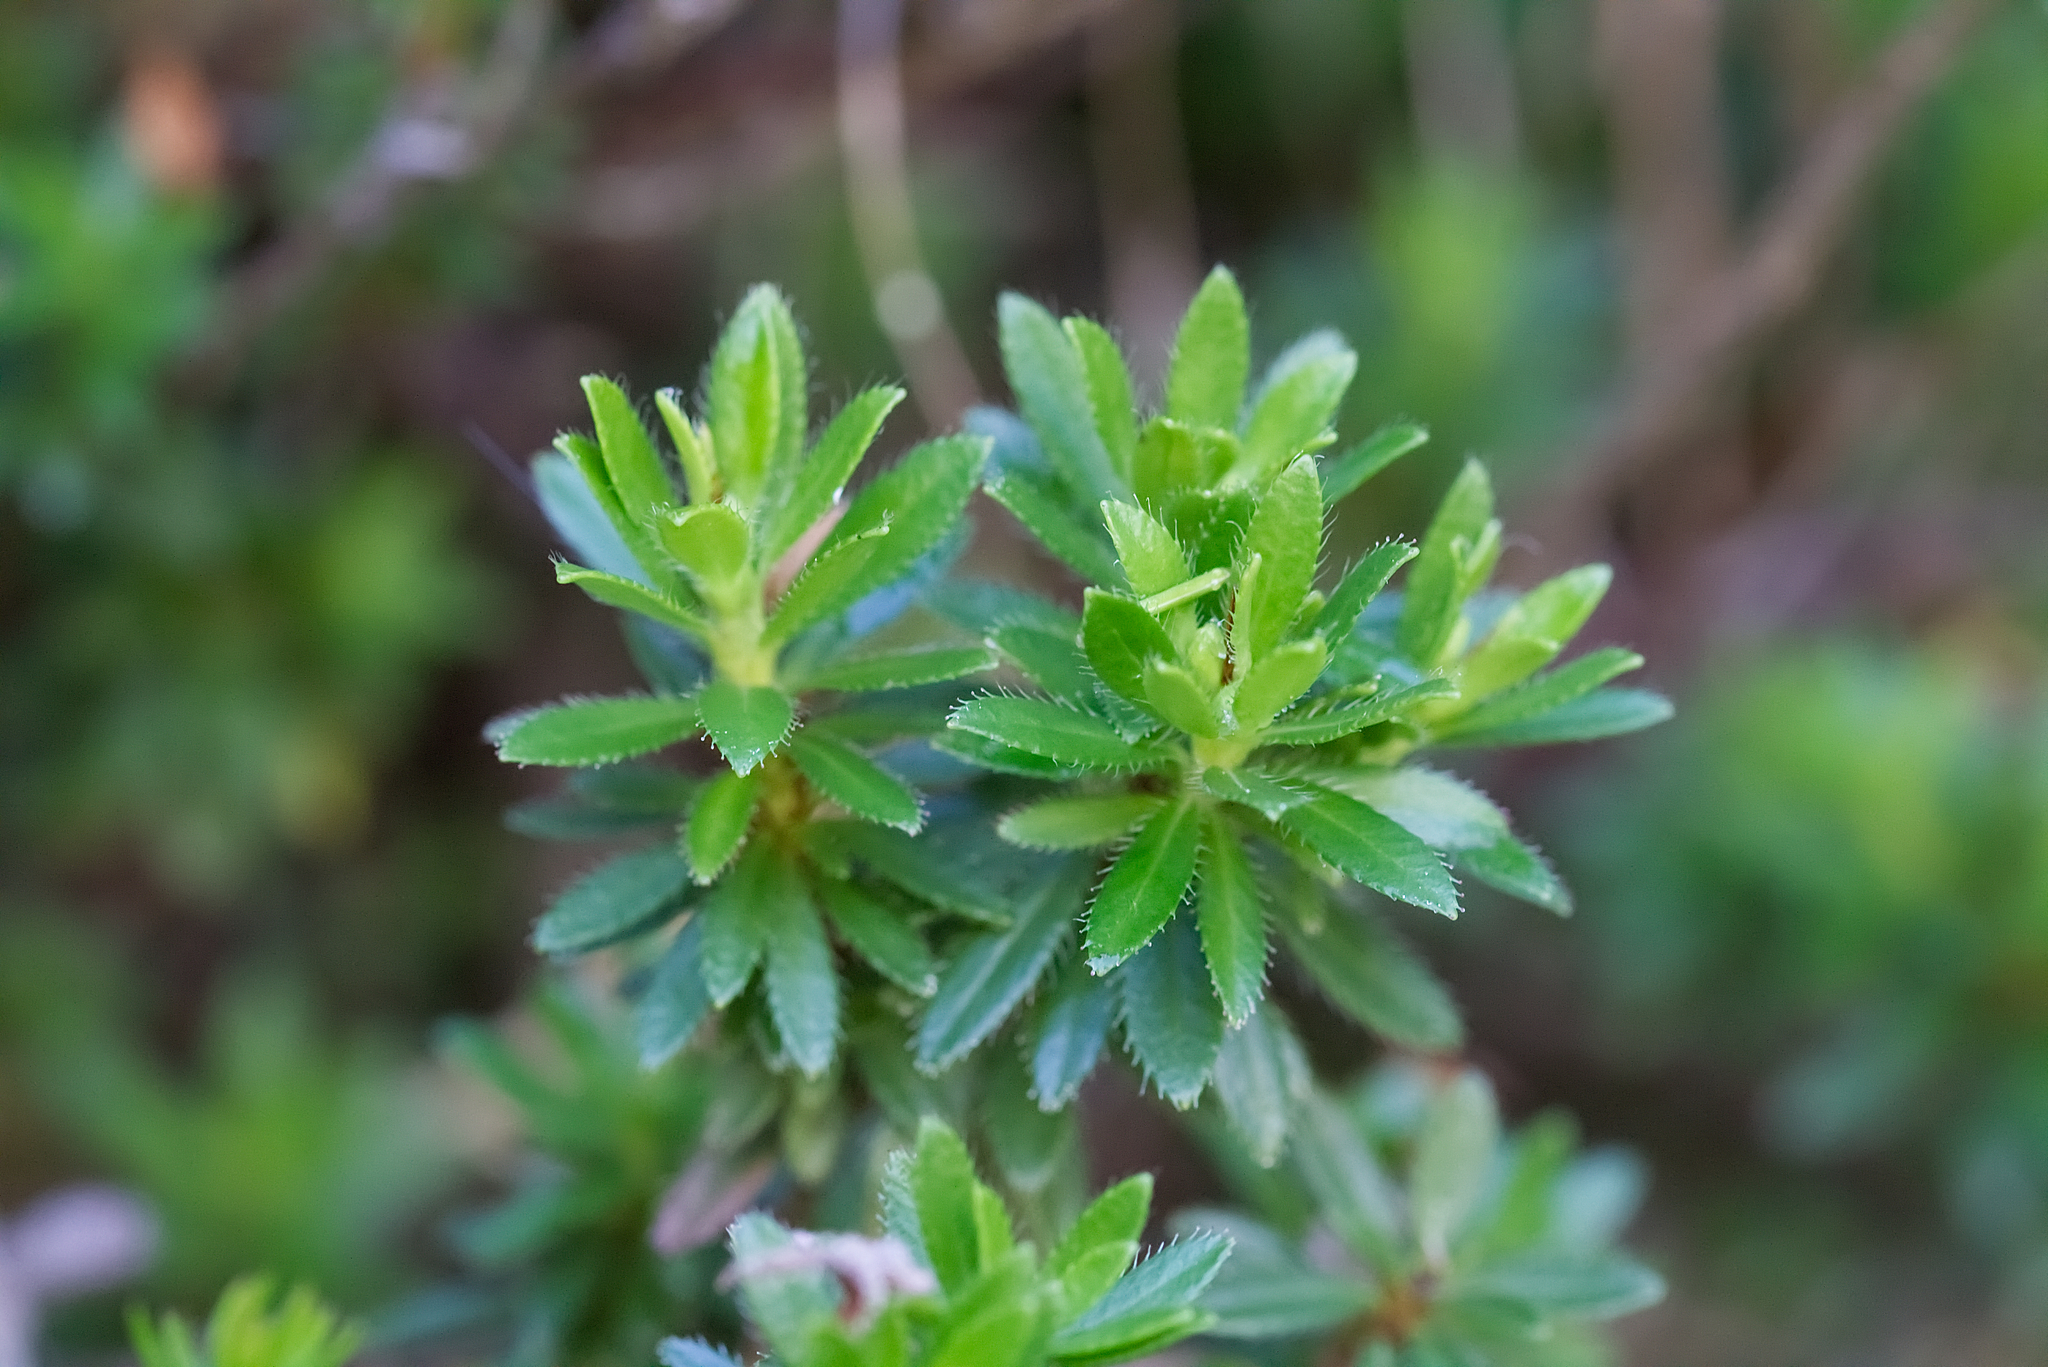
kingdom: Plantae
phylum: Tracheophyta
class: Magnoliopsida
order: Ericales
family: Ericaceae
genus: Rhodothamnus
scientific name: Rhodothamnus chamaecistus
